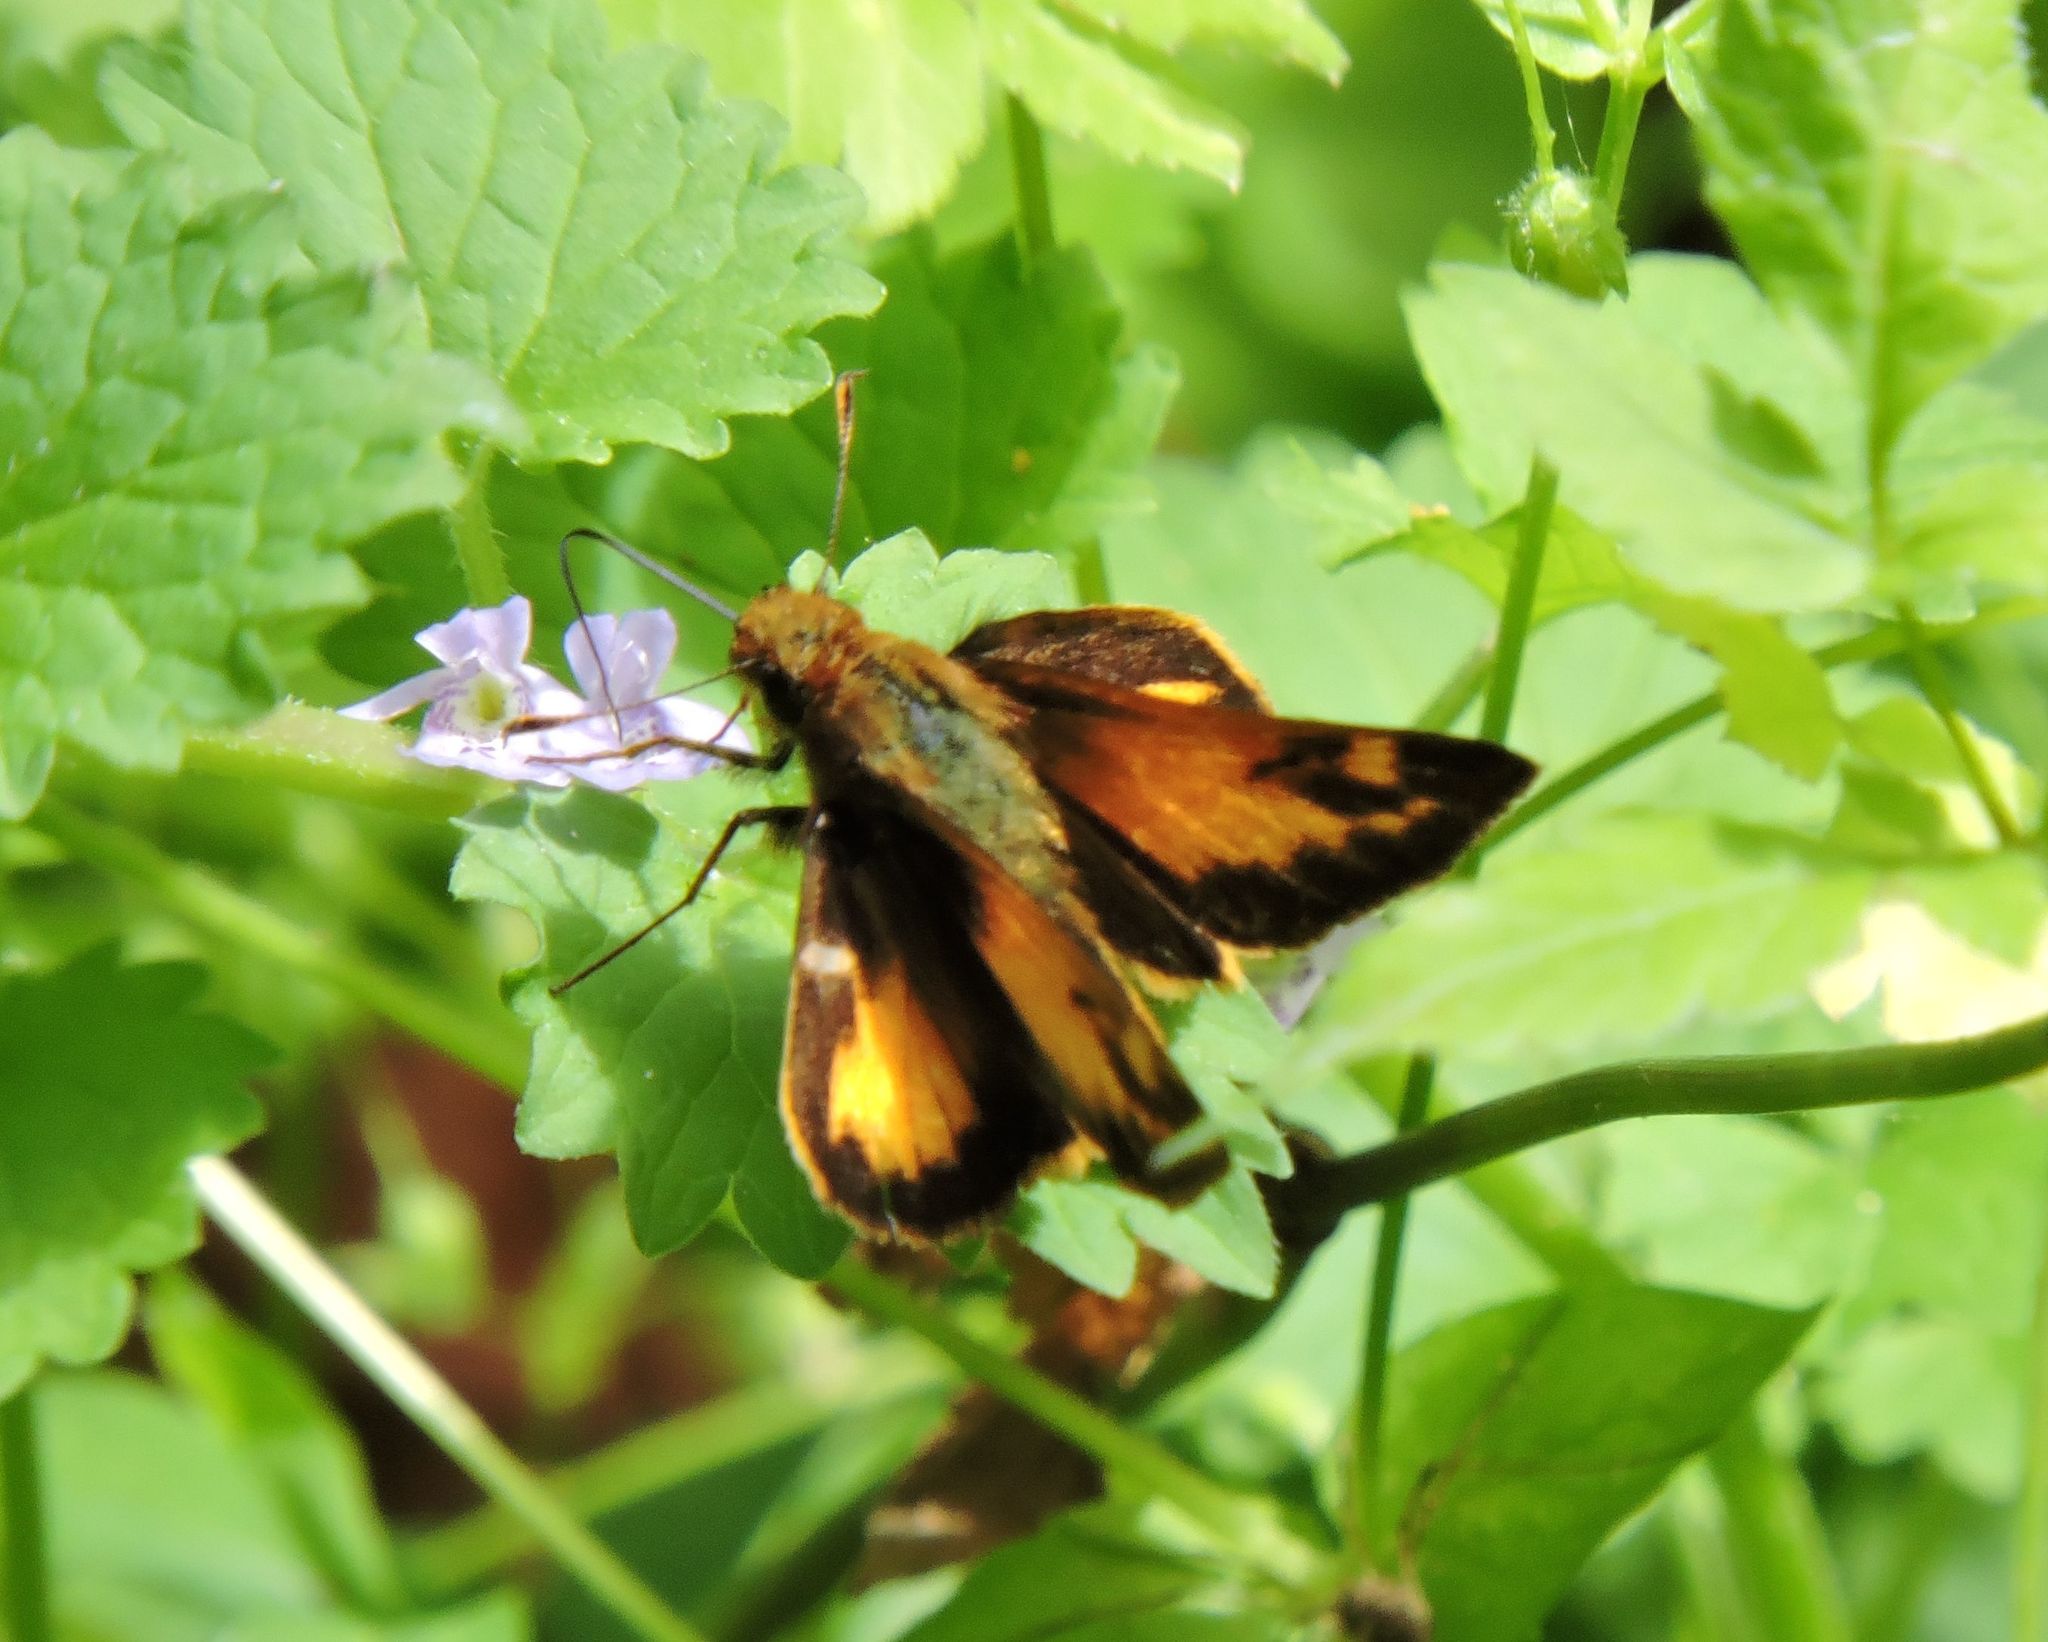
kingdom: Animalia
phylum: Arthropoda
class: Insecta
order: Lepidoptera
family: Hesperiidae
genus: Lon
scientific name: Lon zabulon
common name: Zabulon skipper
